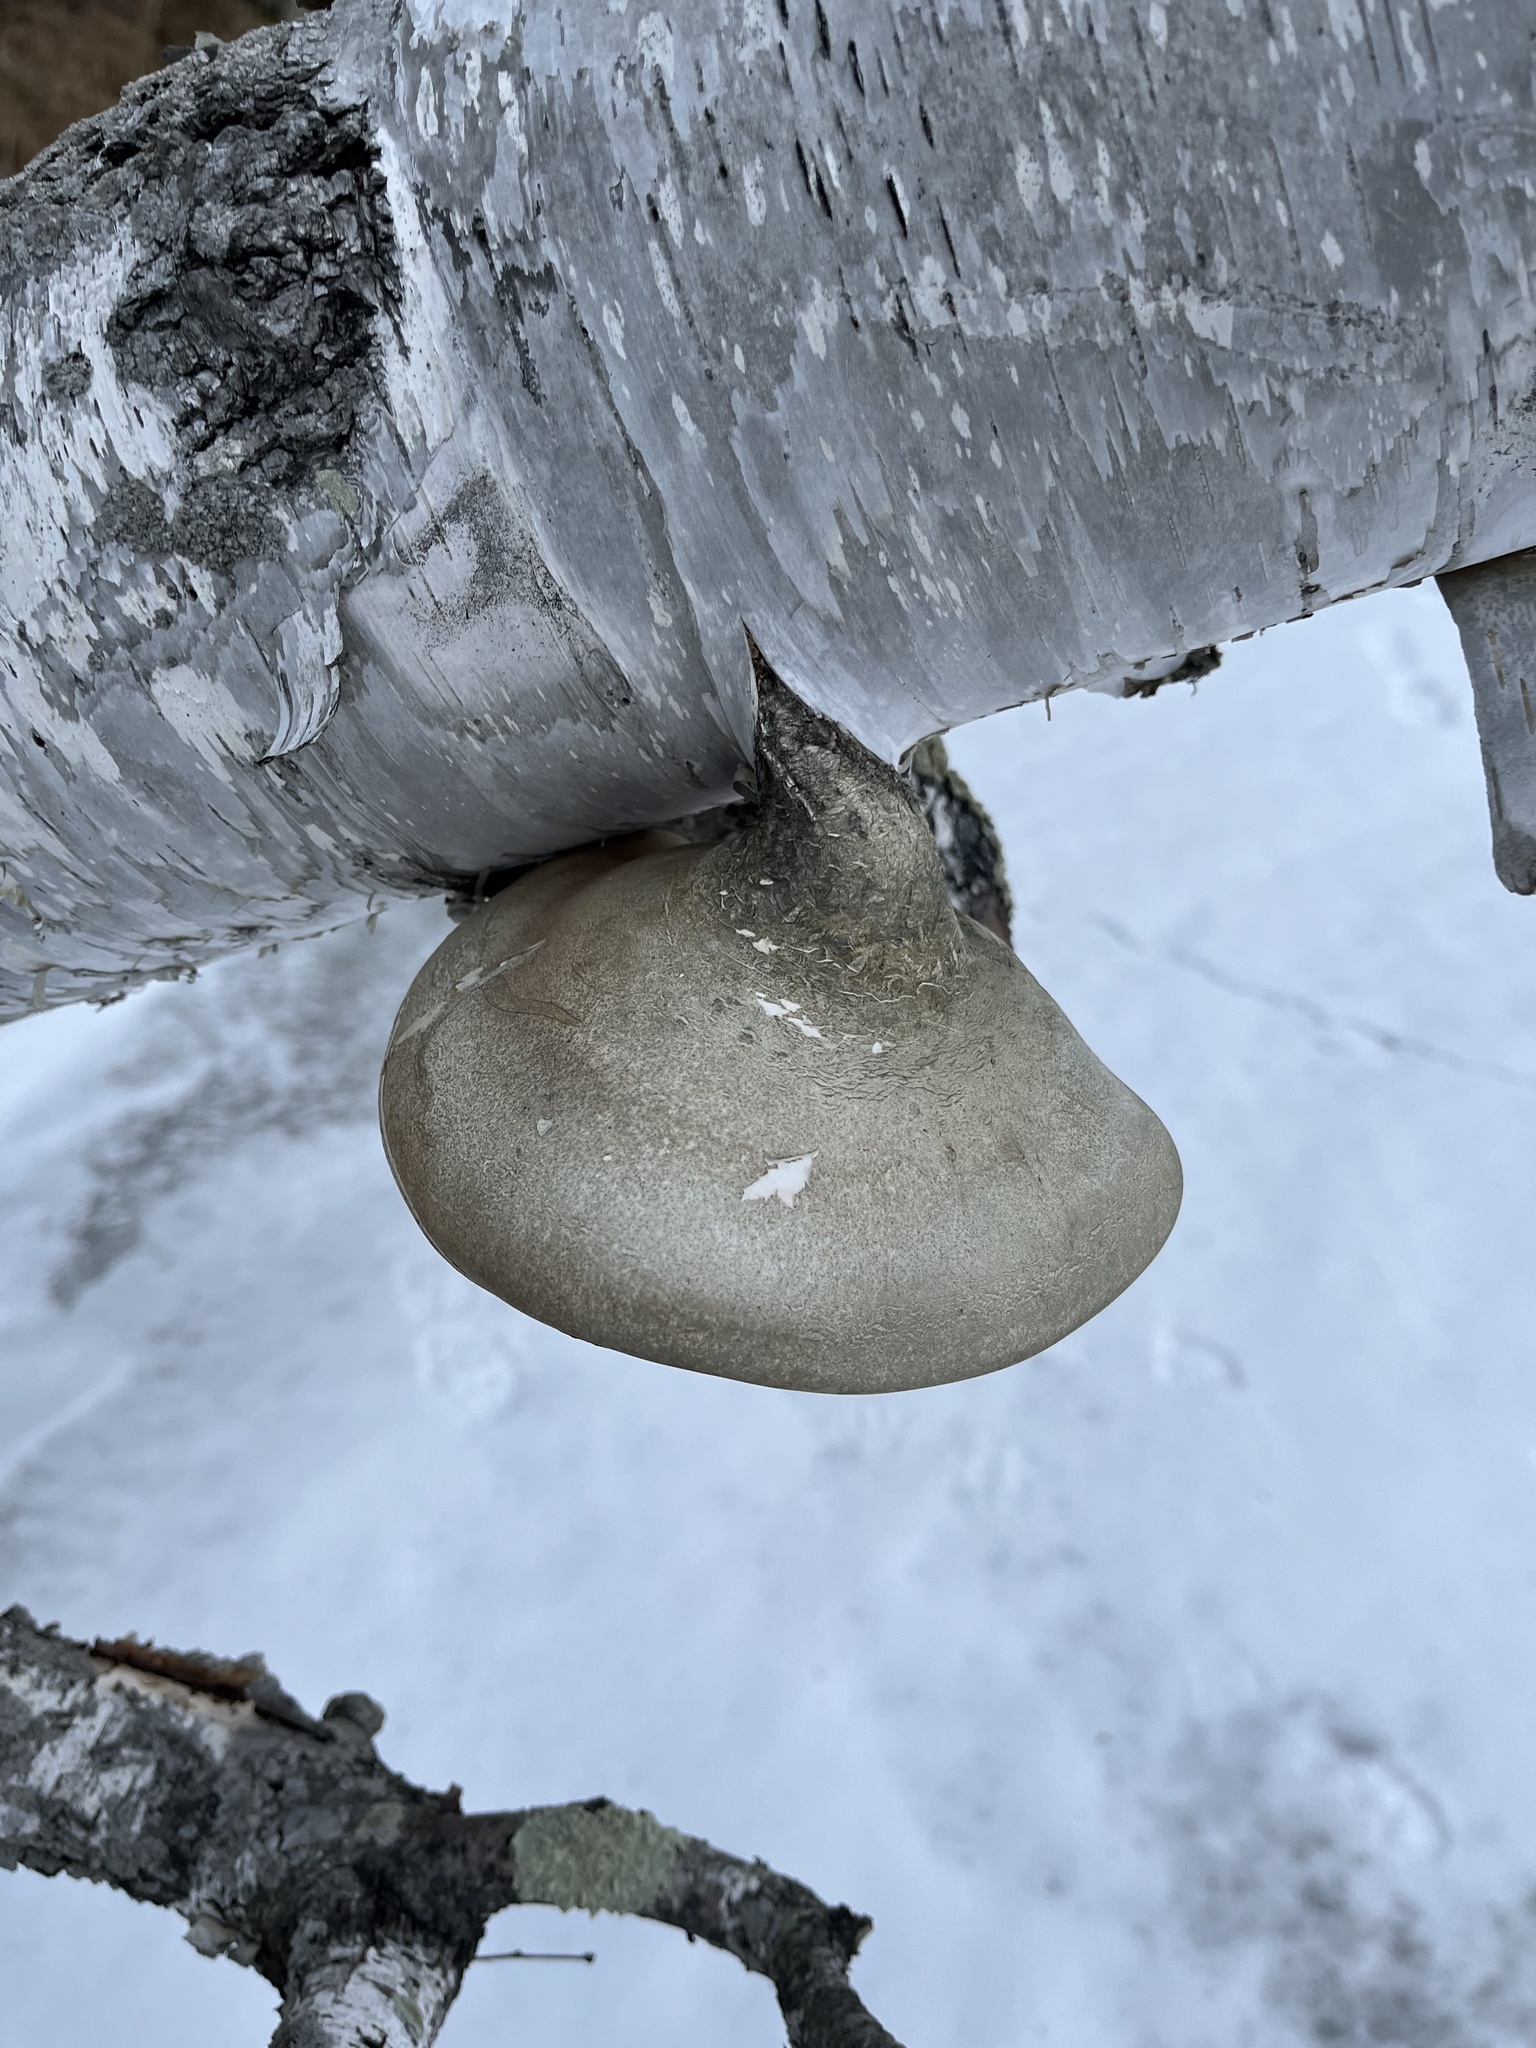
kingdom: Fungi
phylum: Basidiomycota
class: Agaricomycetes
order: Polyporales
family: Fomitopsidaceae
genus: Fomitopsis
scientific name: Fomitopsis betulina
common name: Birch polypore
